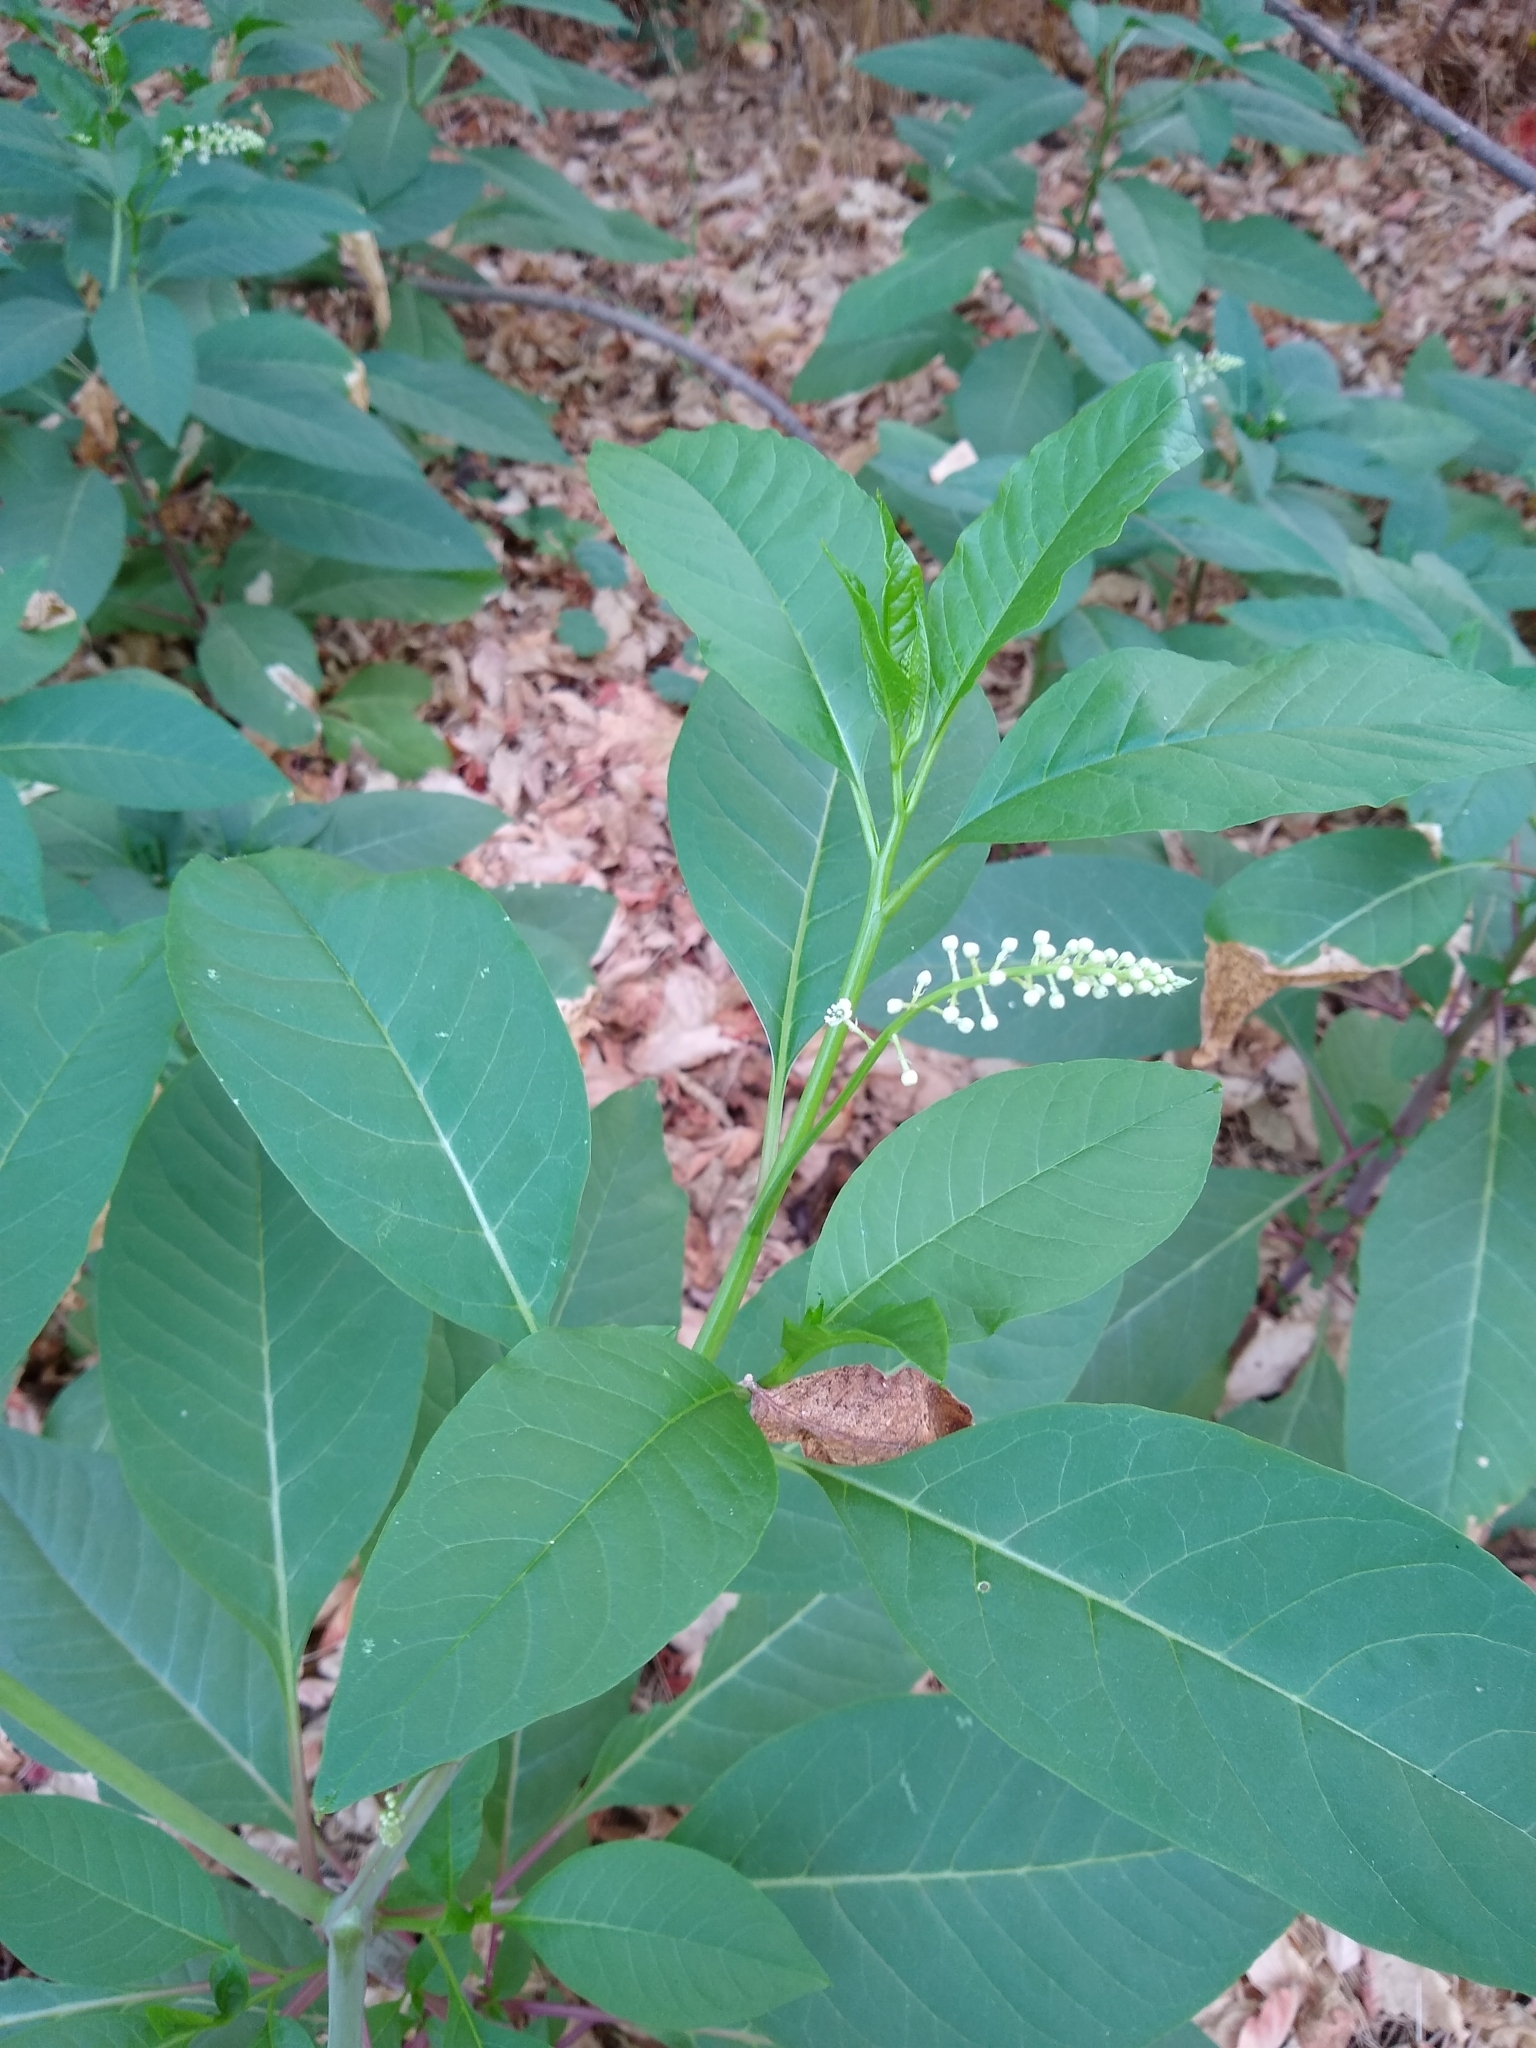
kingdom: Plantae
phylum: Tracheophyta
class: Magnoliopsida
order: Caryophyllales
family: Phytolaccaceae
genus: Phytolacca
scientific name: Phytolacca americana
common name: American pokeweed
